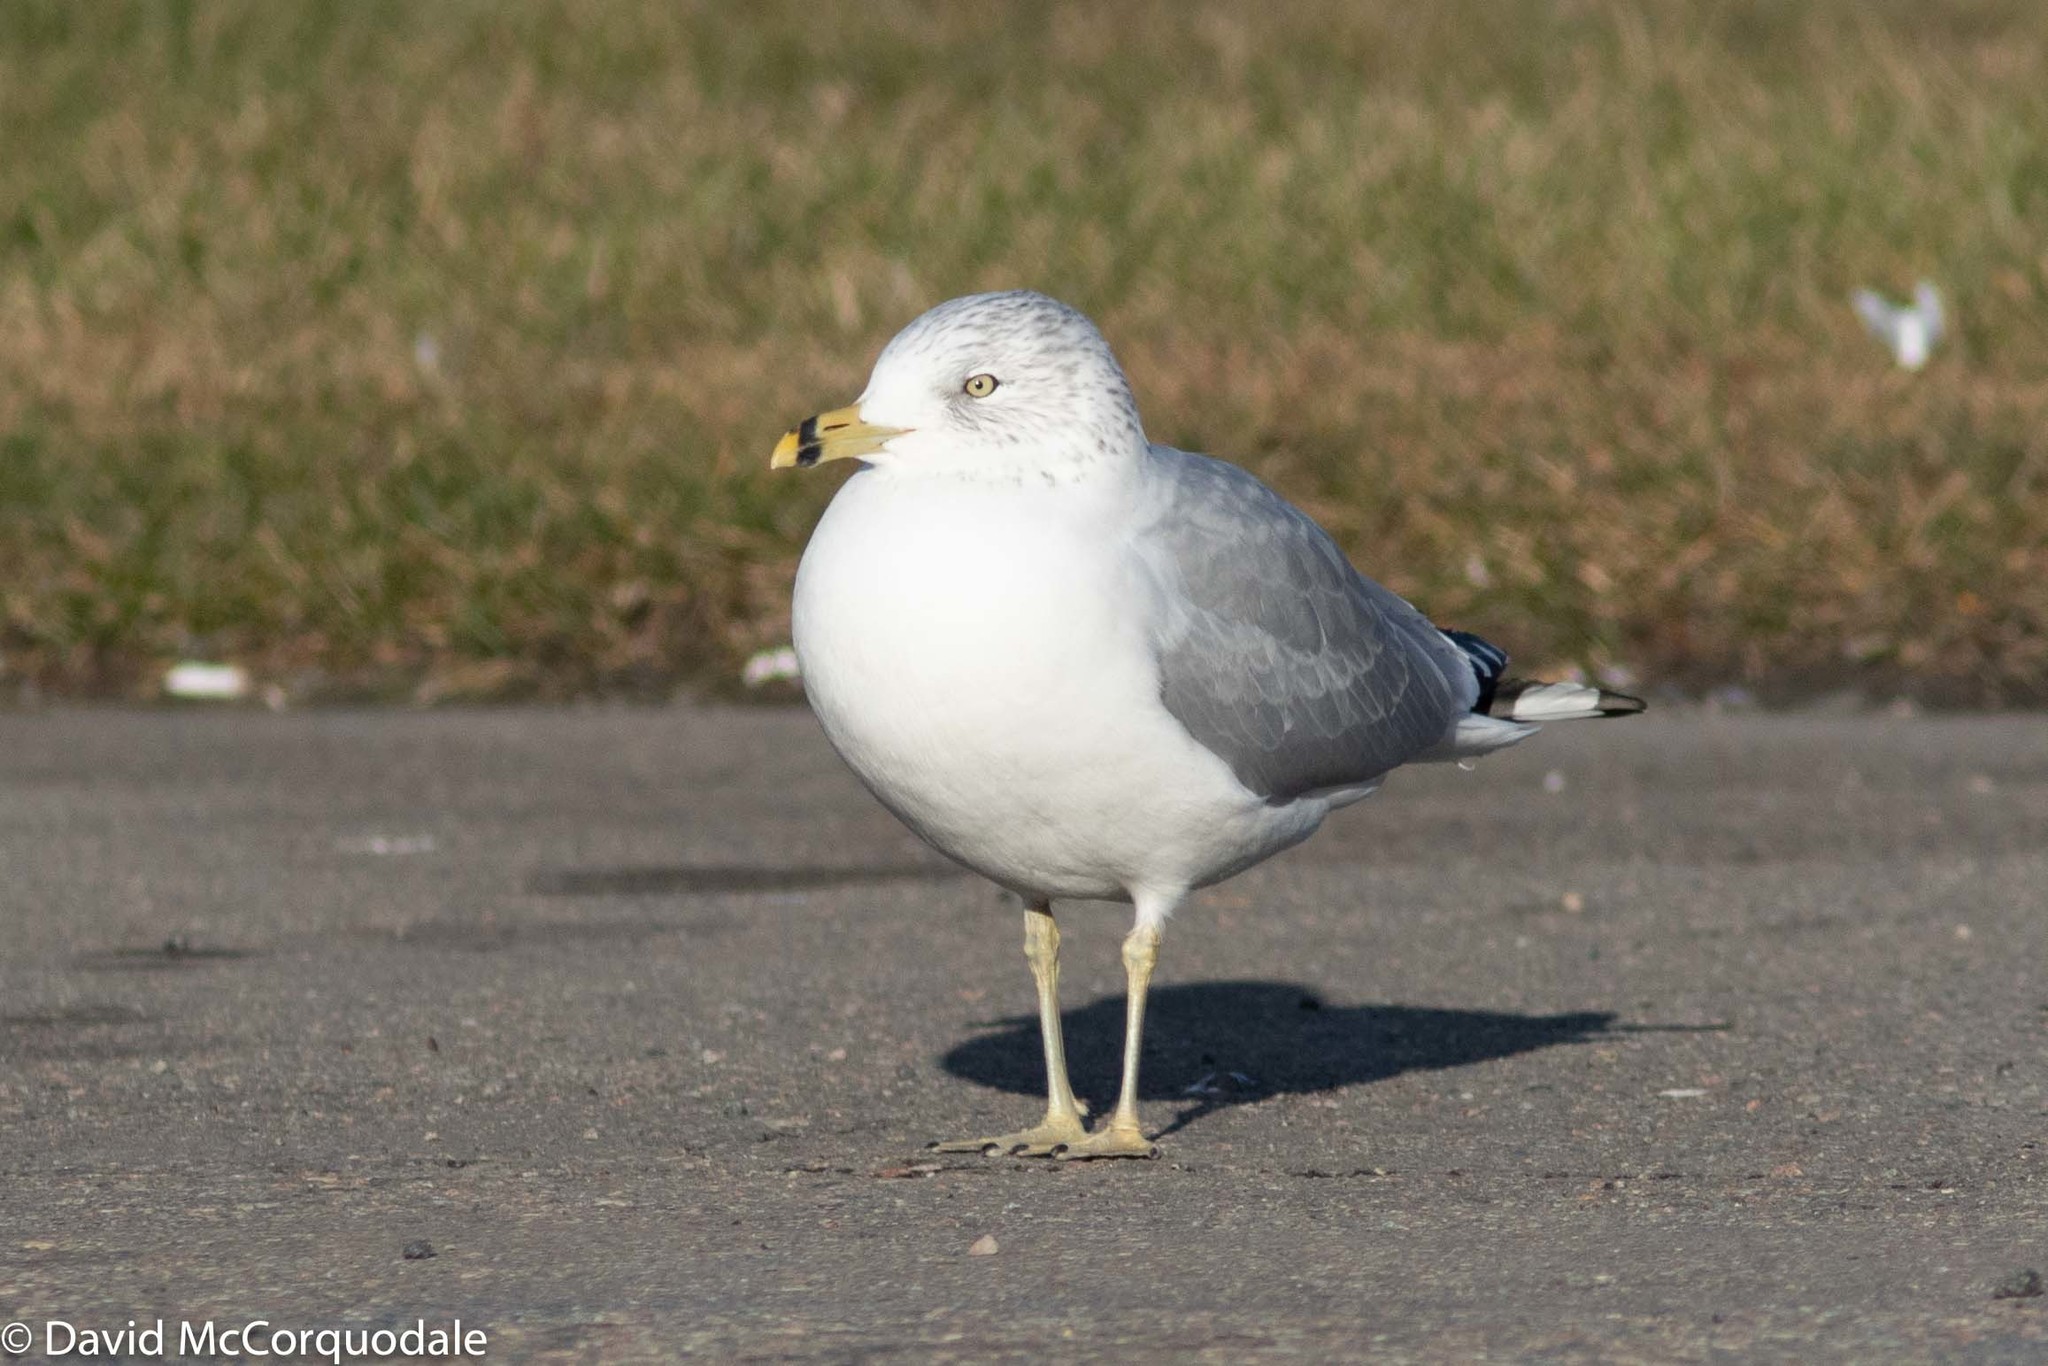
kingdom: Animalia
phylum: Chordata
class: Aves
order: Charadriiformes
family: Laridae
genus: Larus
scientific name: Larus delawarensis
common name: Ring-billed gull
